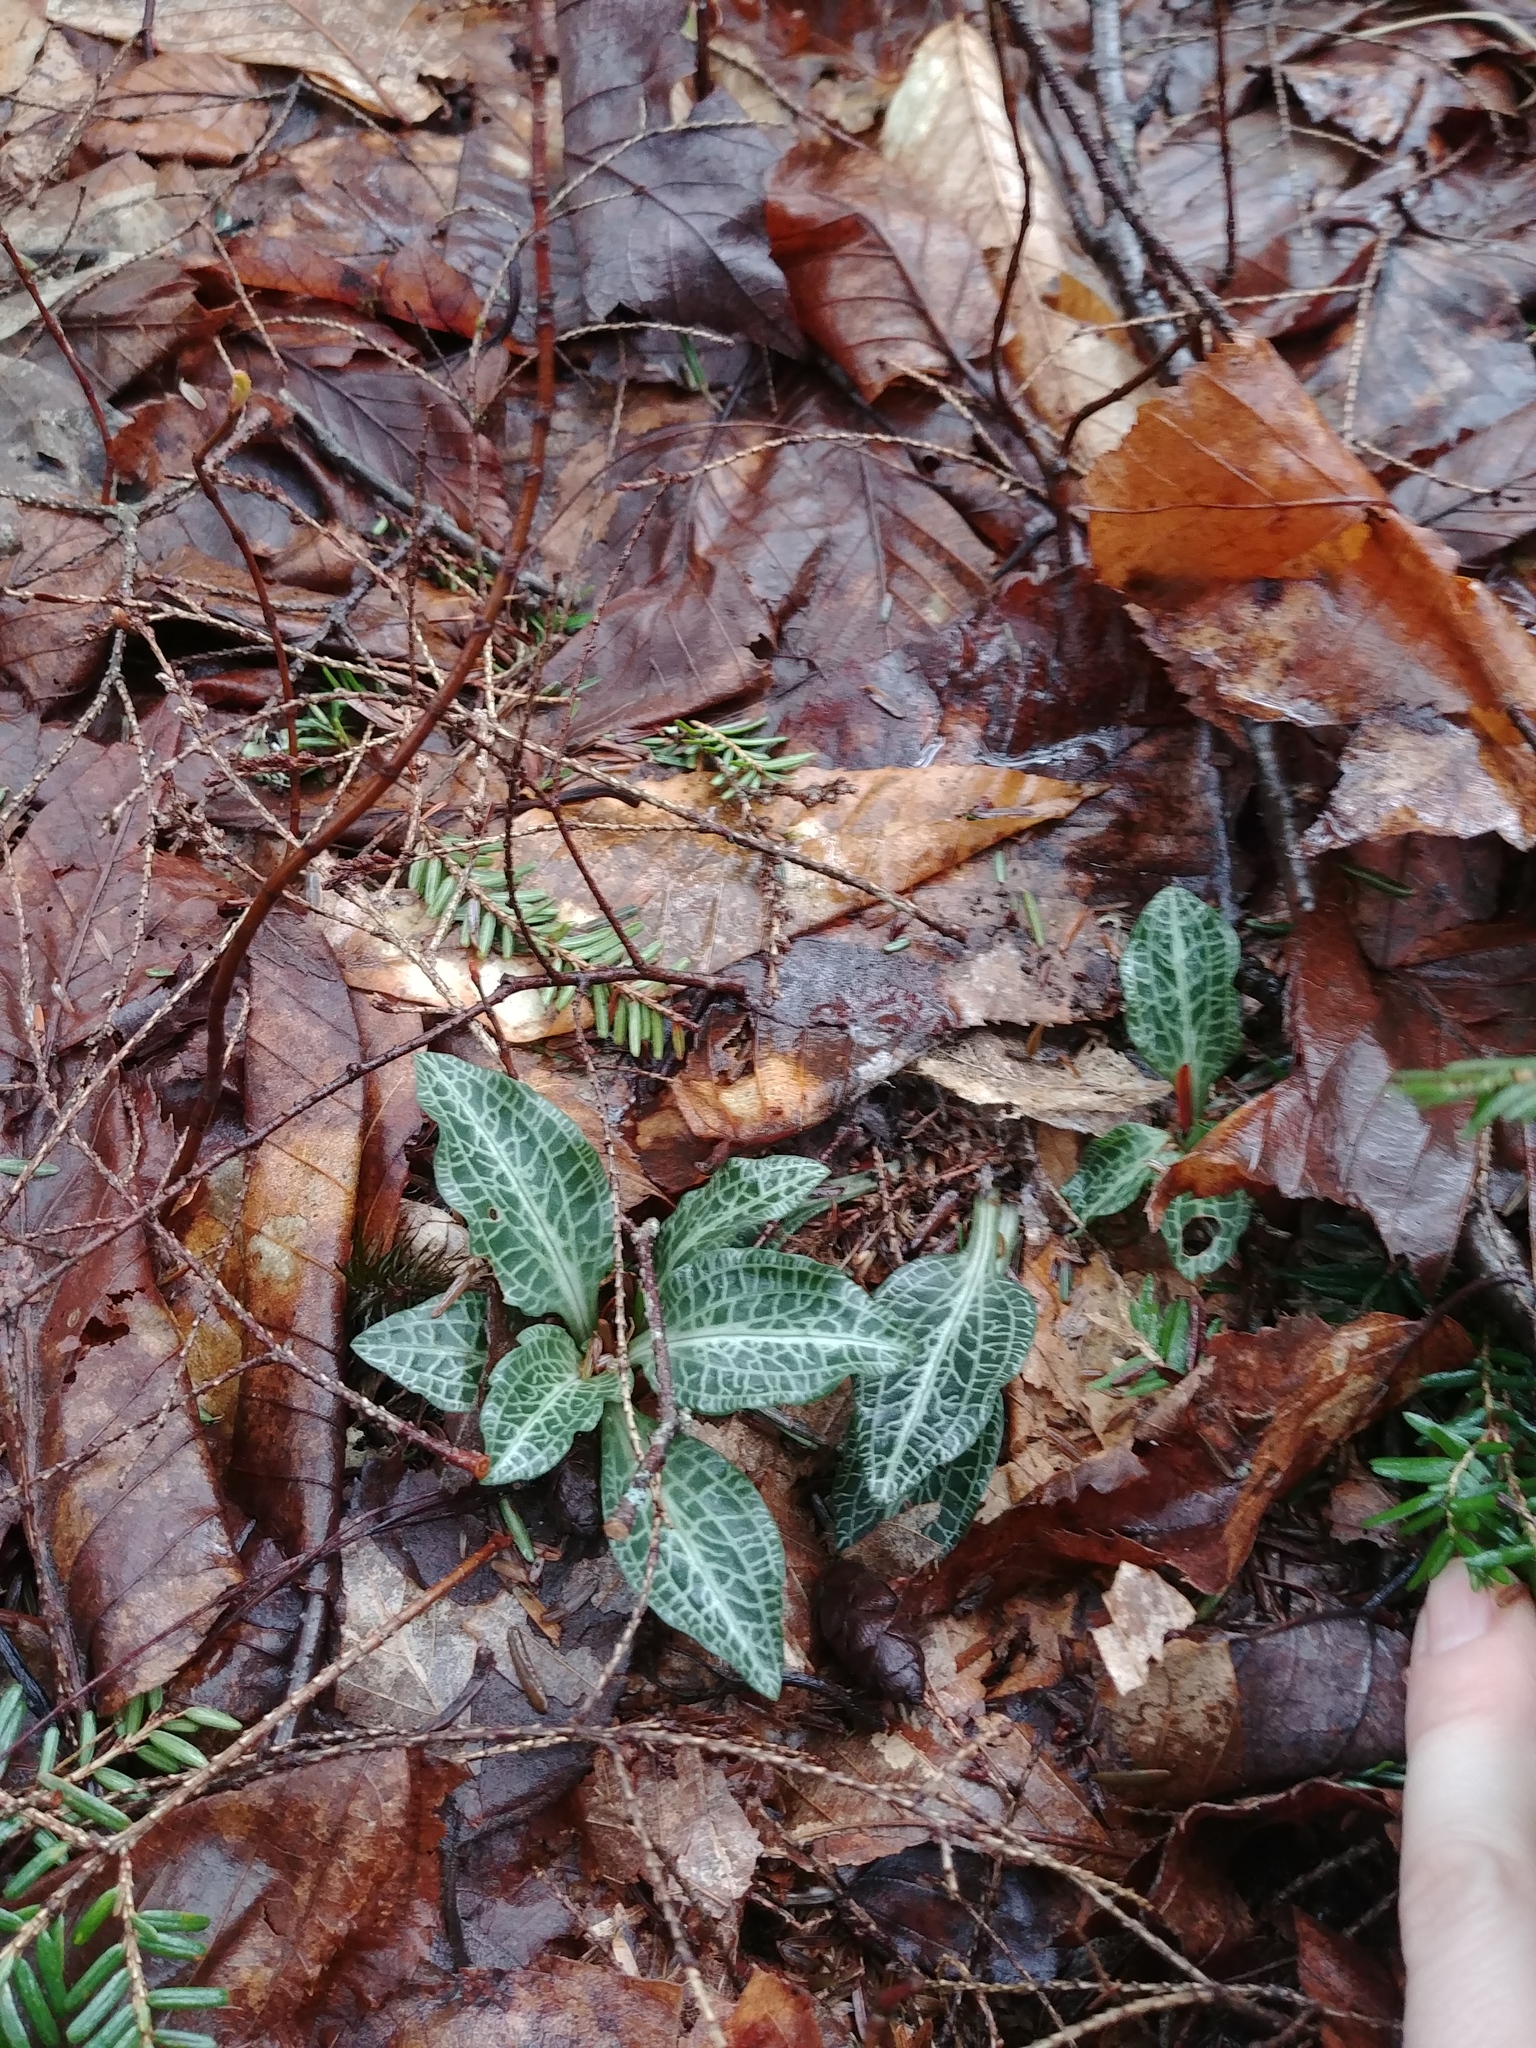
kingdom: Plantae
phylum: Tracheophyta
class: Liliopsida
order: Asparagales
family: Orchidaceae
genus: Goodyera
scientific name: Goodyera pubescens
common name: Downy rattlesnake-plantain
